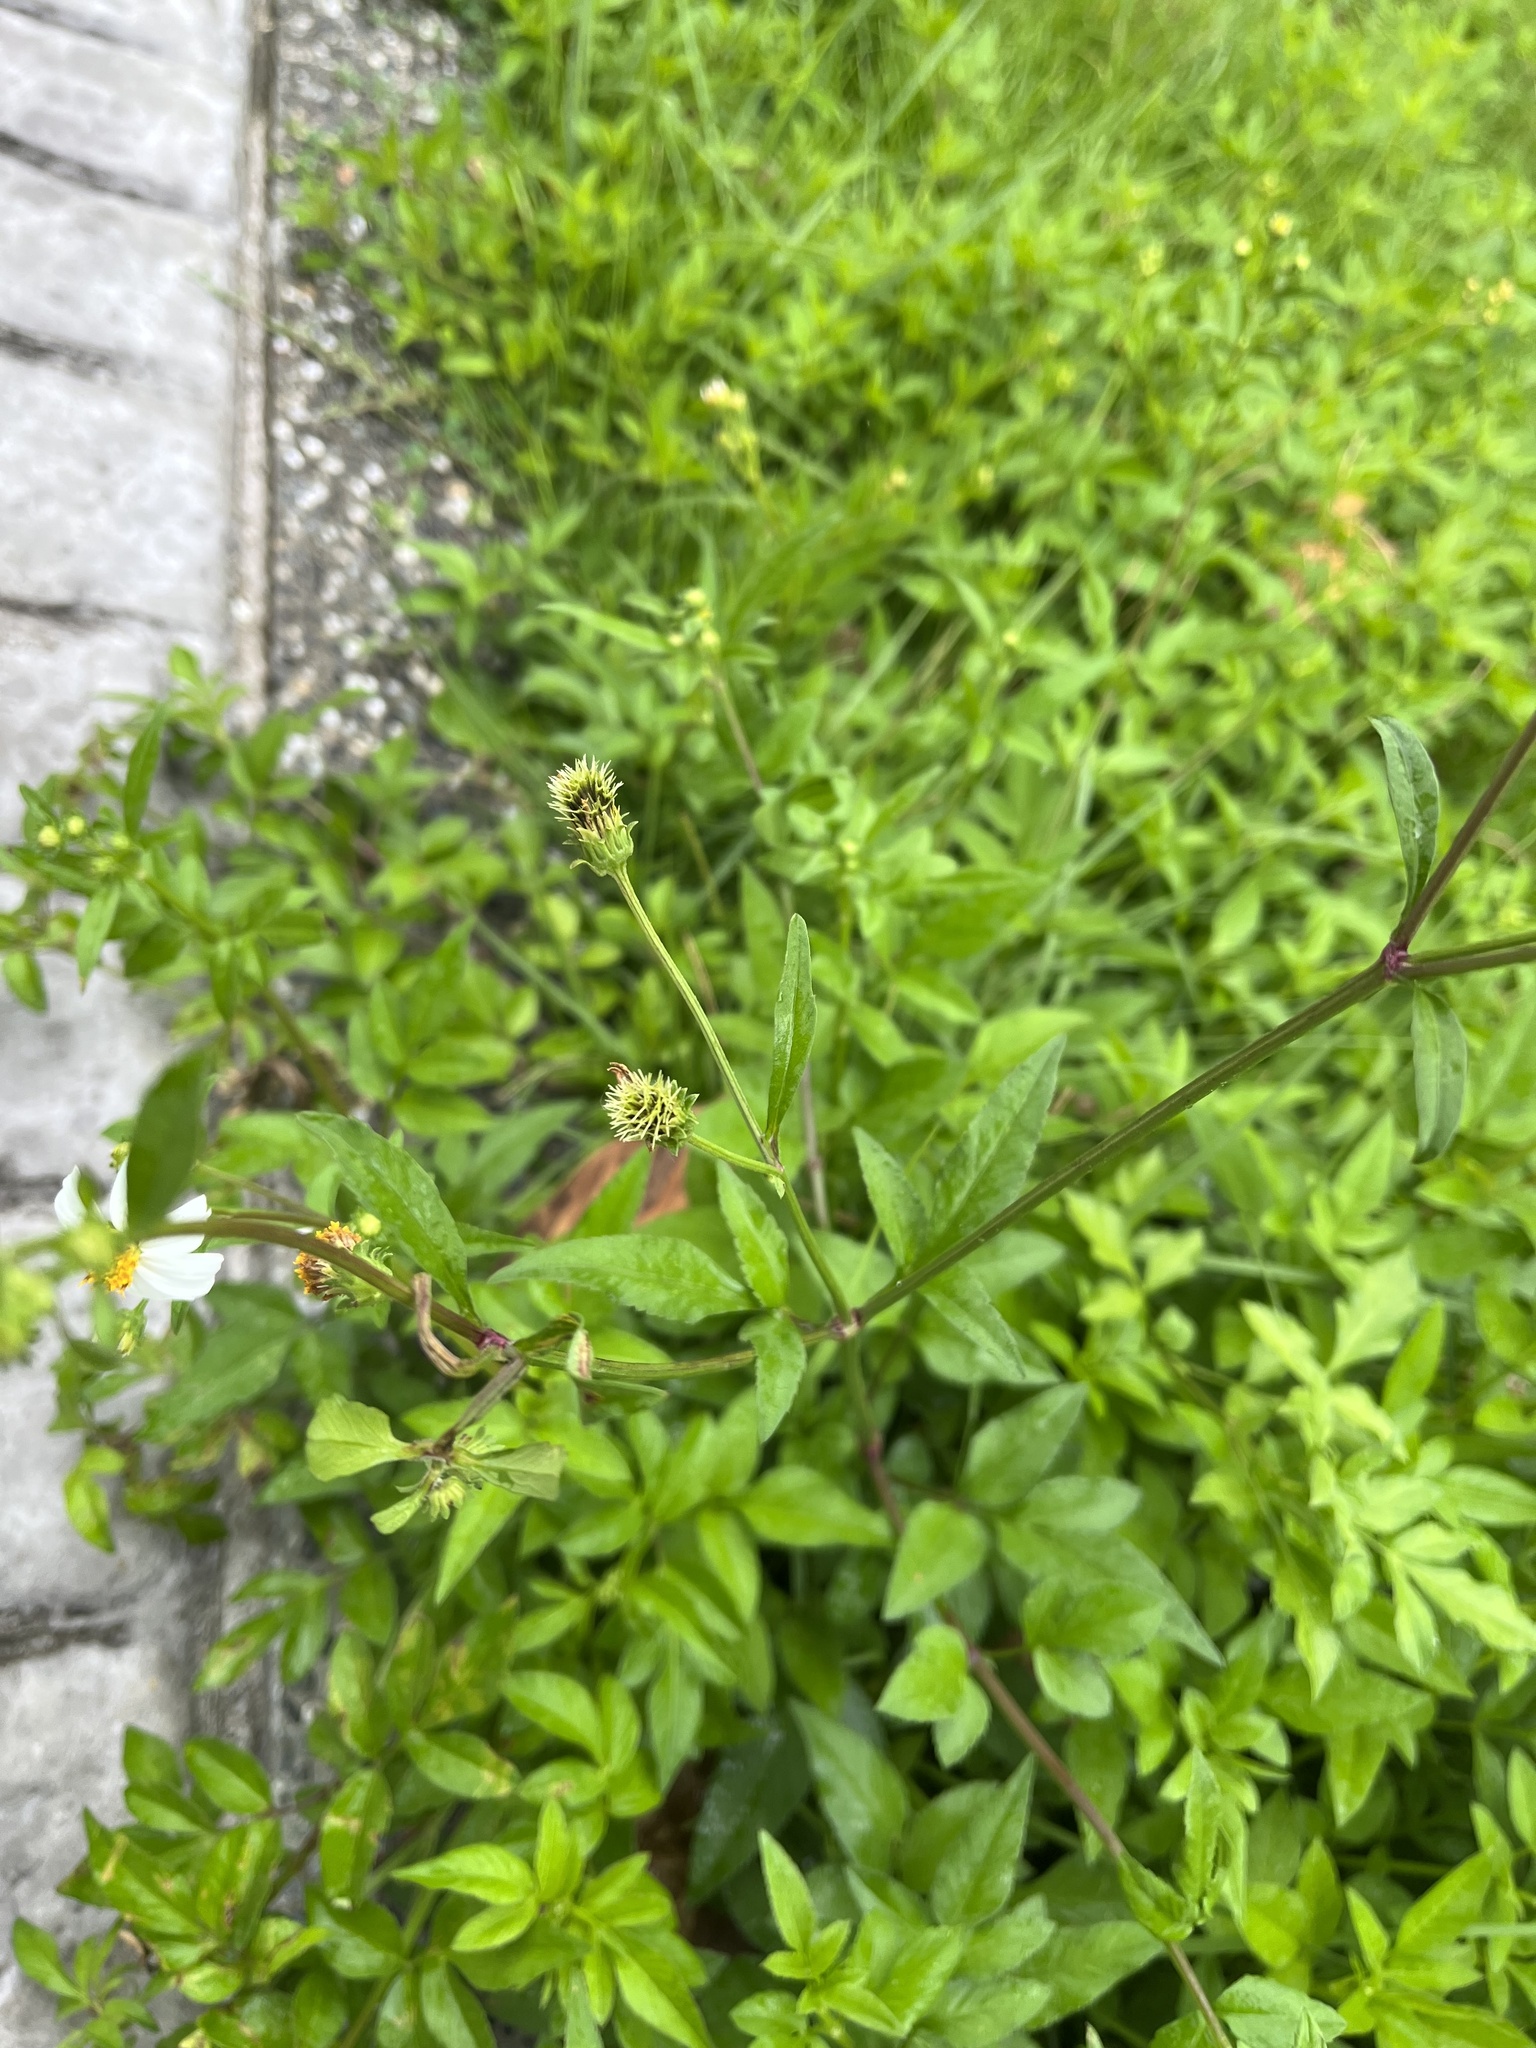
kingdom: Plantae
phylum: Tracheophyta
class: Magnoliopsida
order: Asterales
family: Asteraceae
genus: Bidens
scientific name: Bidens alba
